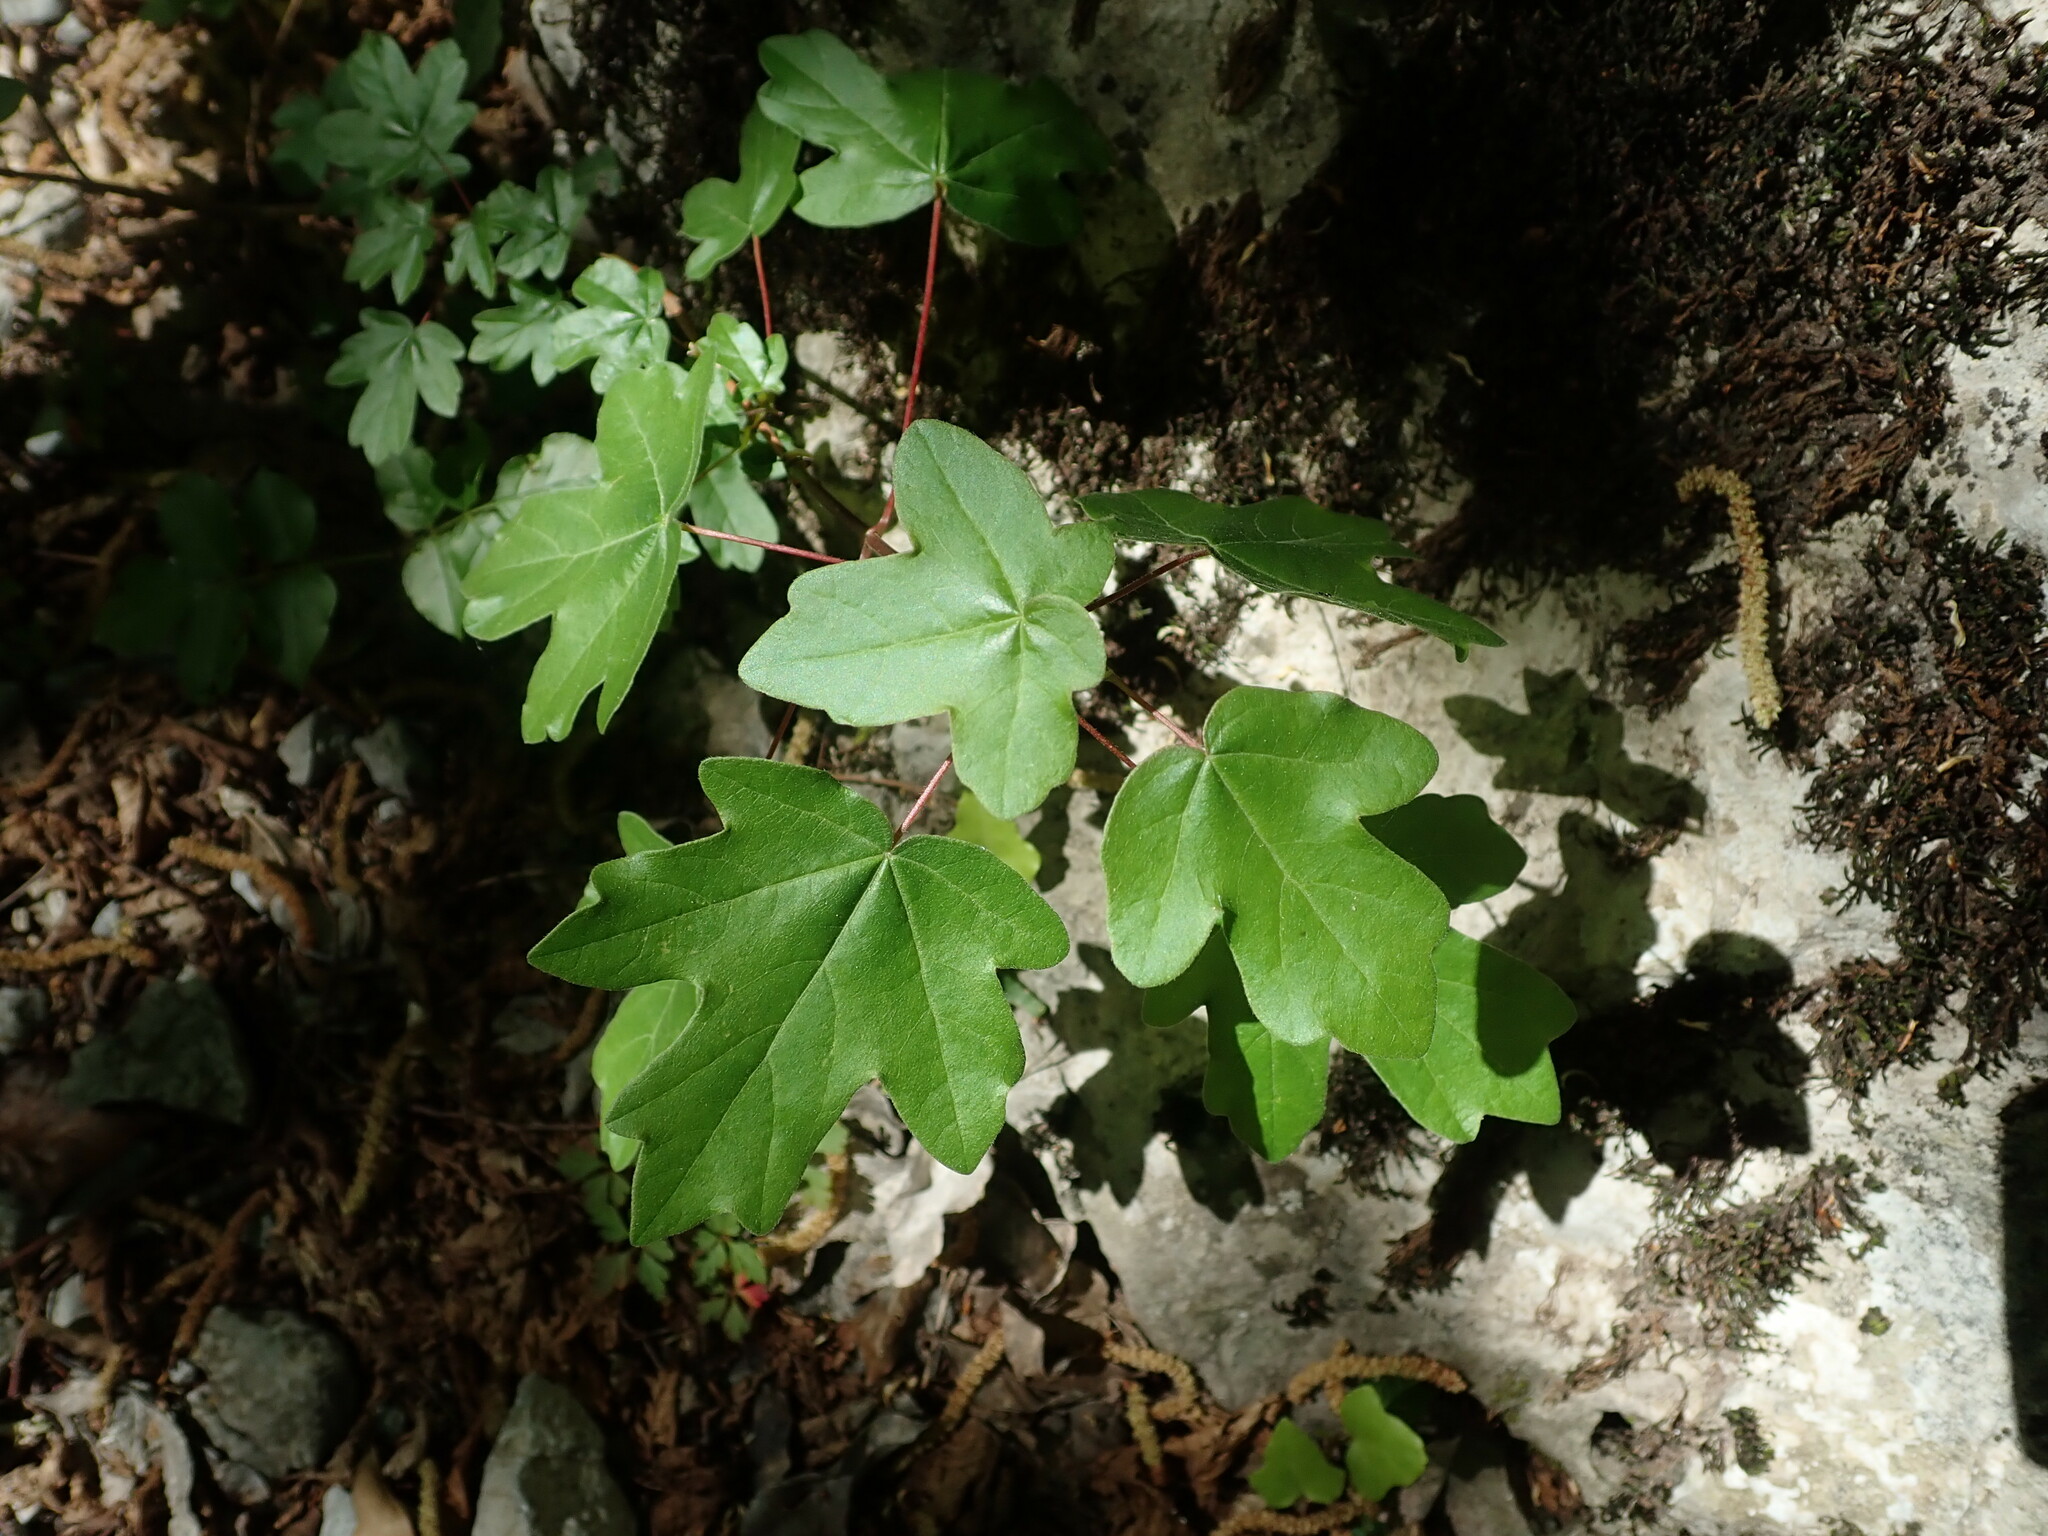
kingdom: Plantae
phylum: Tracheophyta
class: Magnoliopsida
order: Sapindales
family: Sapindaceae
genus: Acer
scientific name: Acer campestre
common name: Field maple
